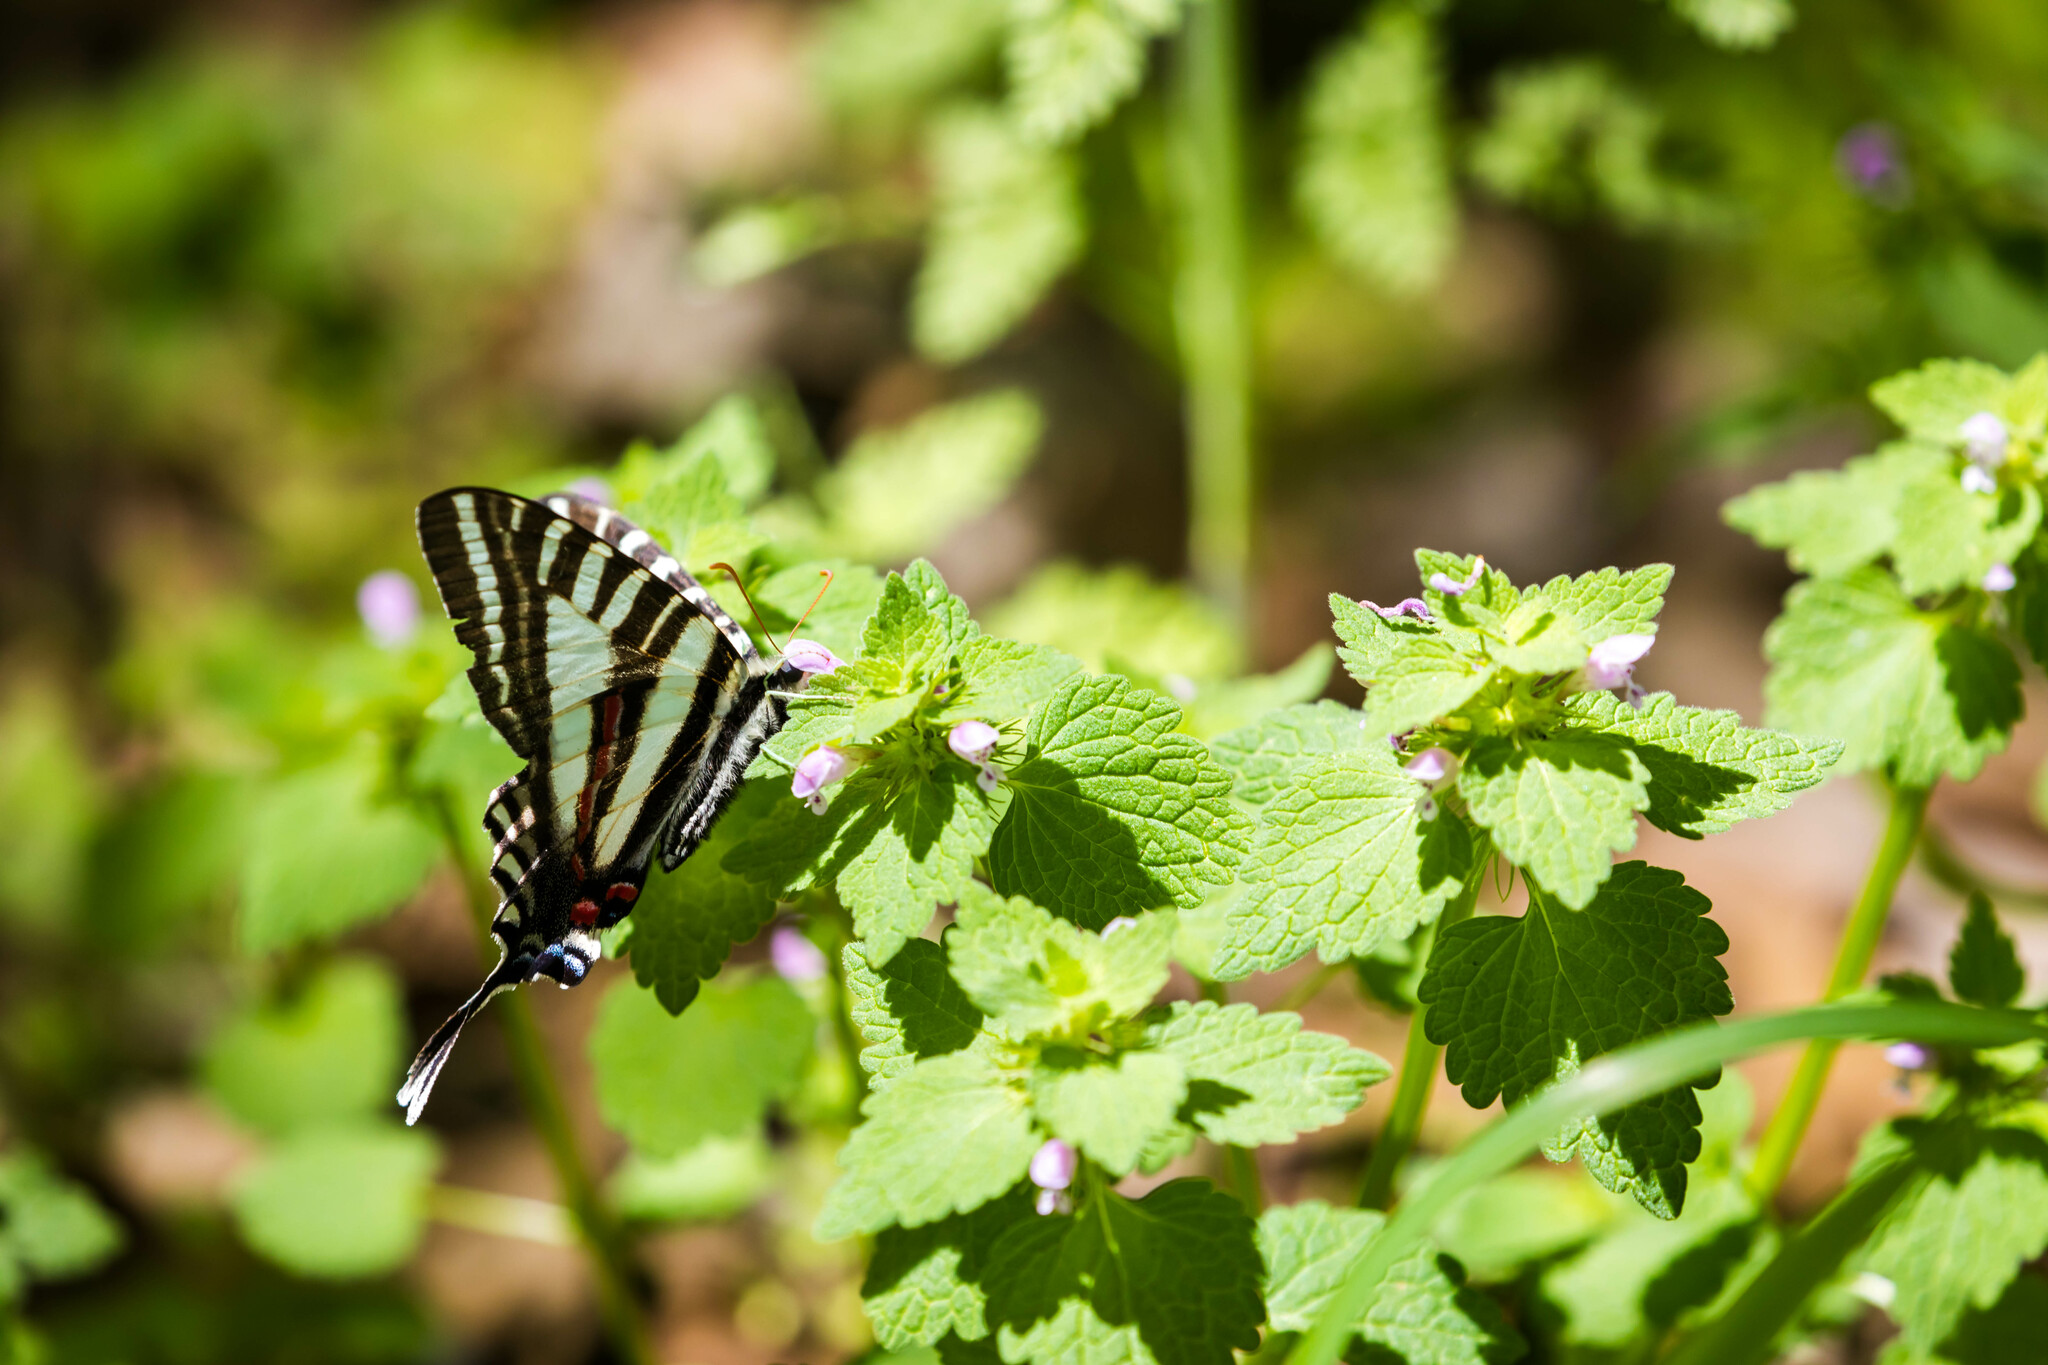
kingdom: Animalia
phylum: Arthropoda
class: Insecta
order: Lepidoptera
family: Papilionidae
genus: Protographium
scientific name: Protographium marcellus
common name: Zebra swallowtail
